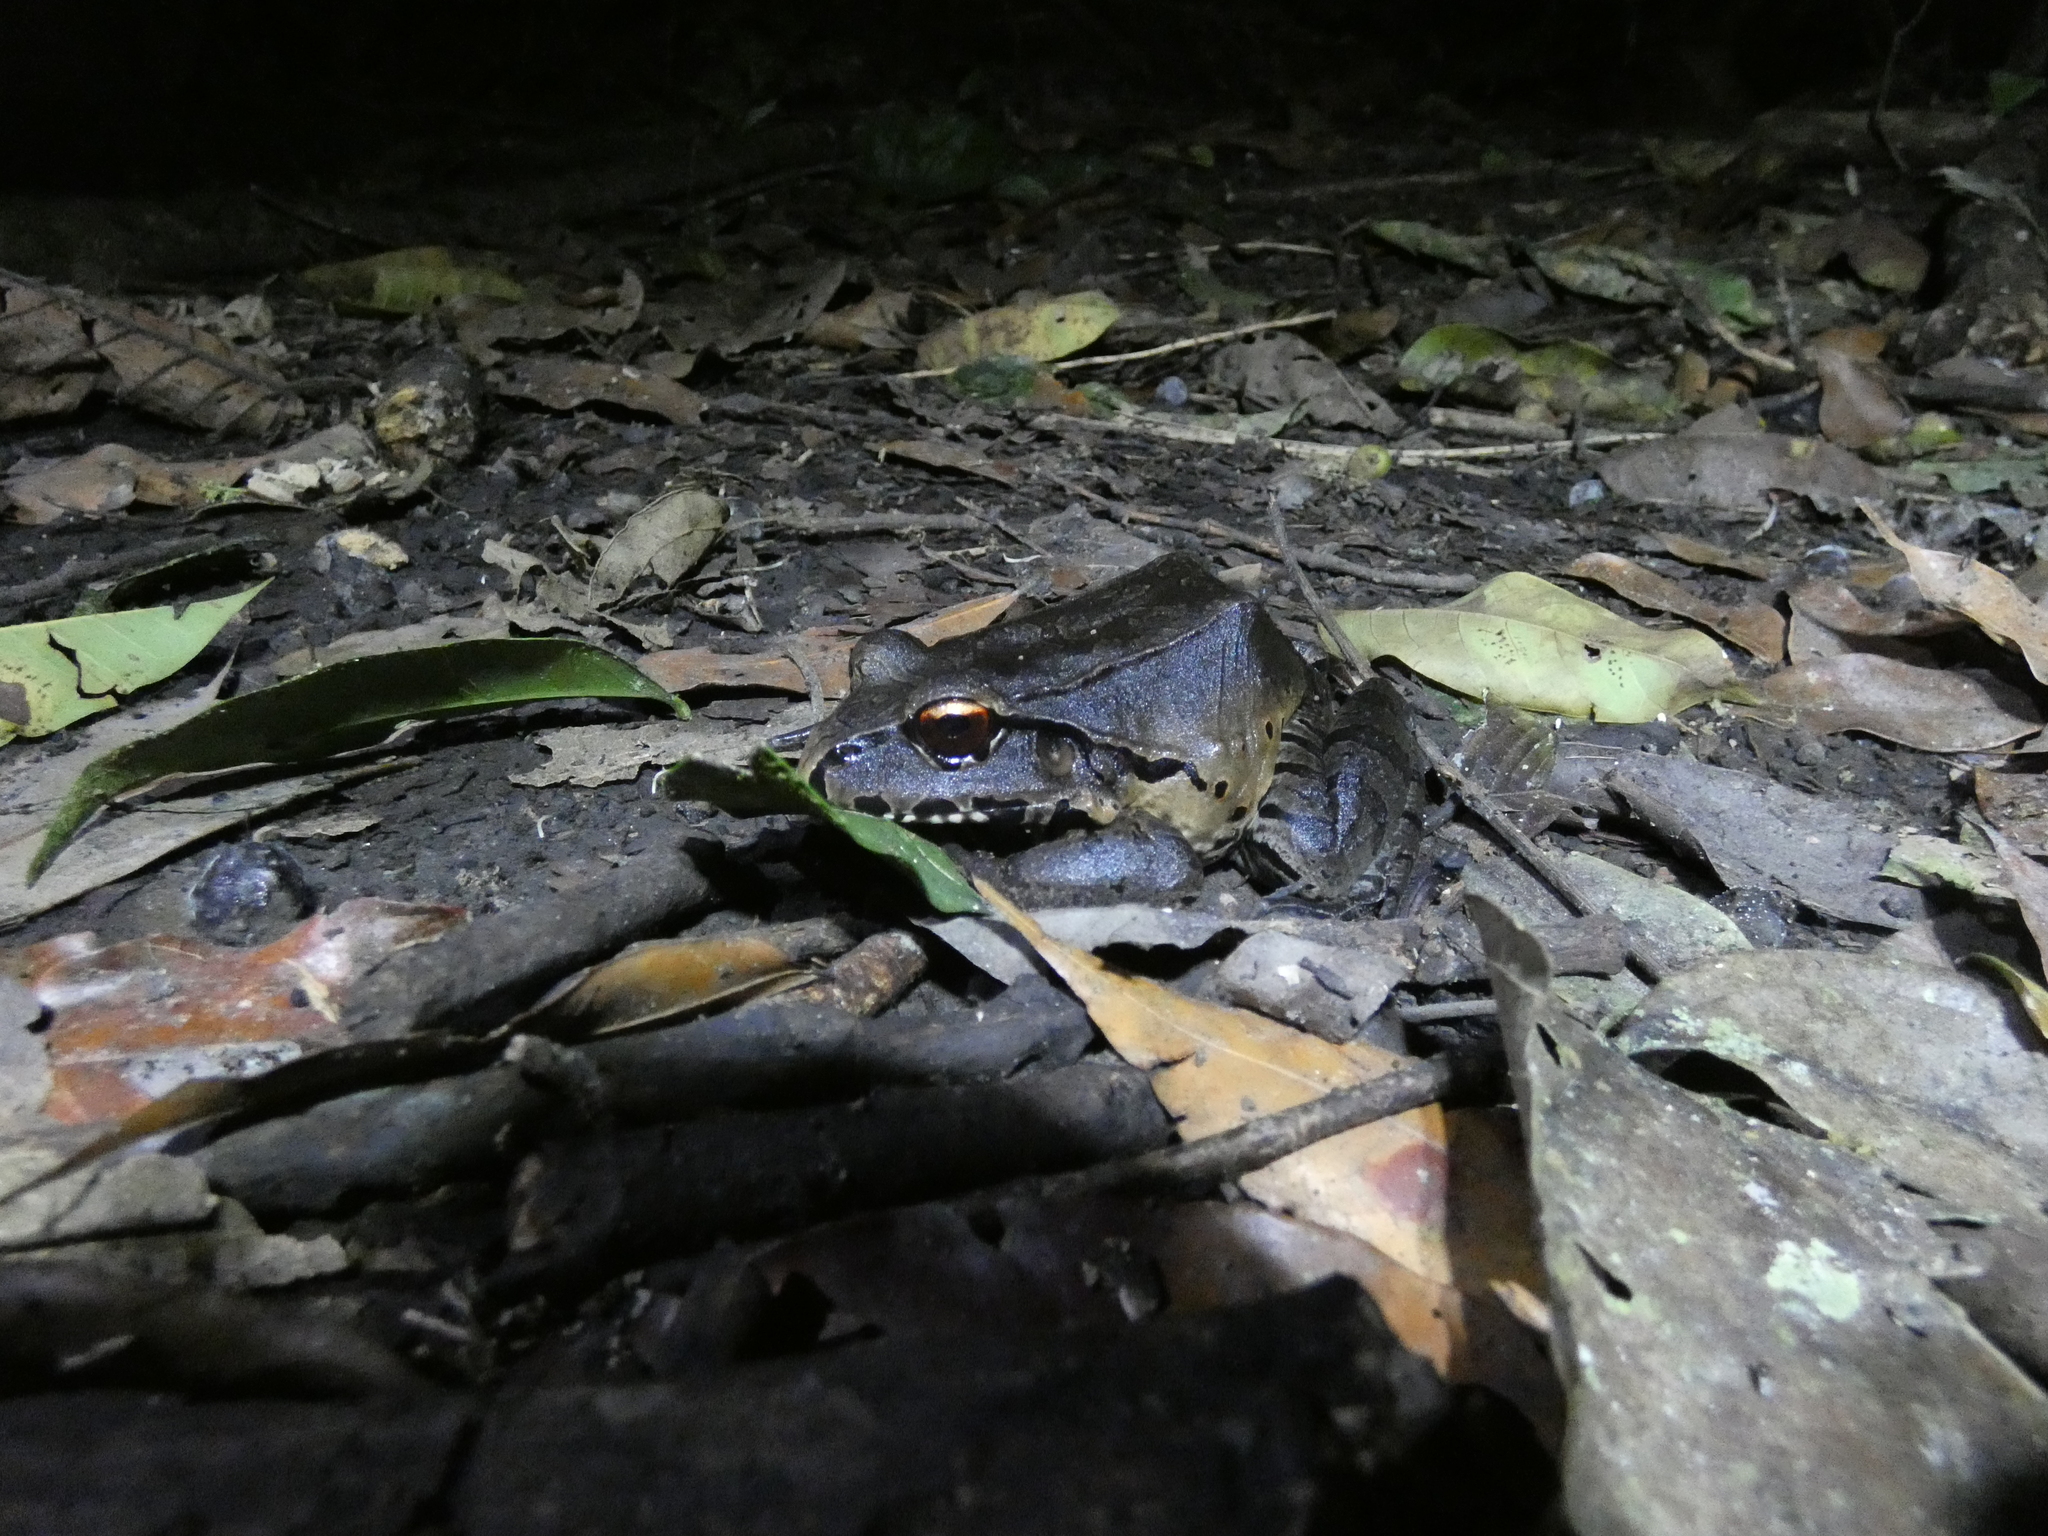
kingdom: Animalia
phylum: Chordata
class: Amphibia
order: Anura
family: Leptodactylidae
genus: Leptodactylus
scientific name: Leptodactylus pentadactylus
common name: Smoky jungle frog
